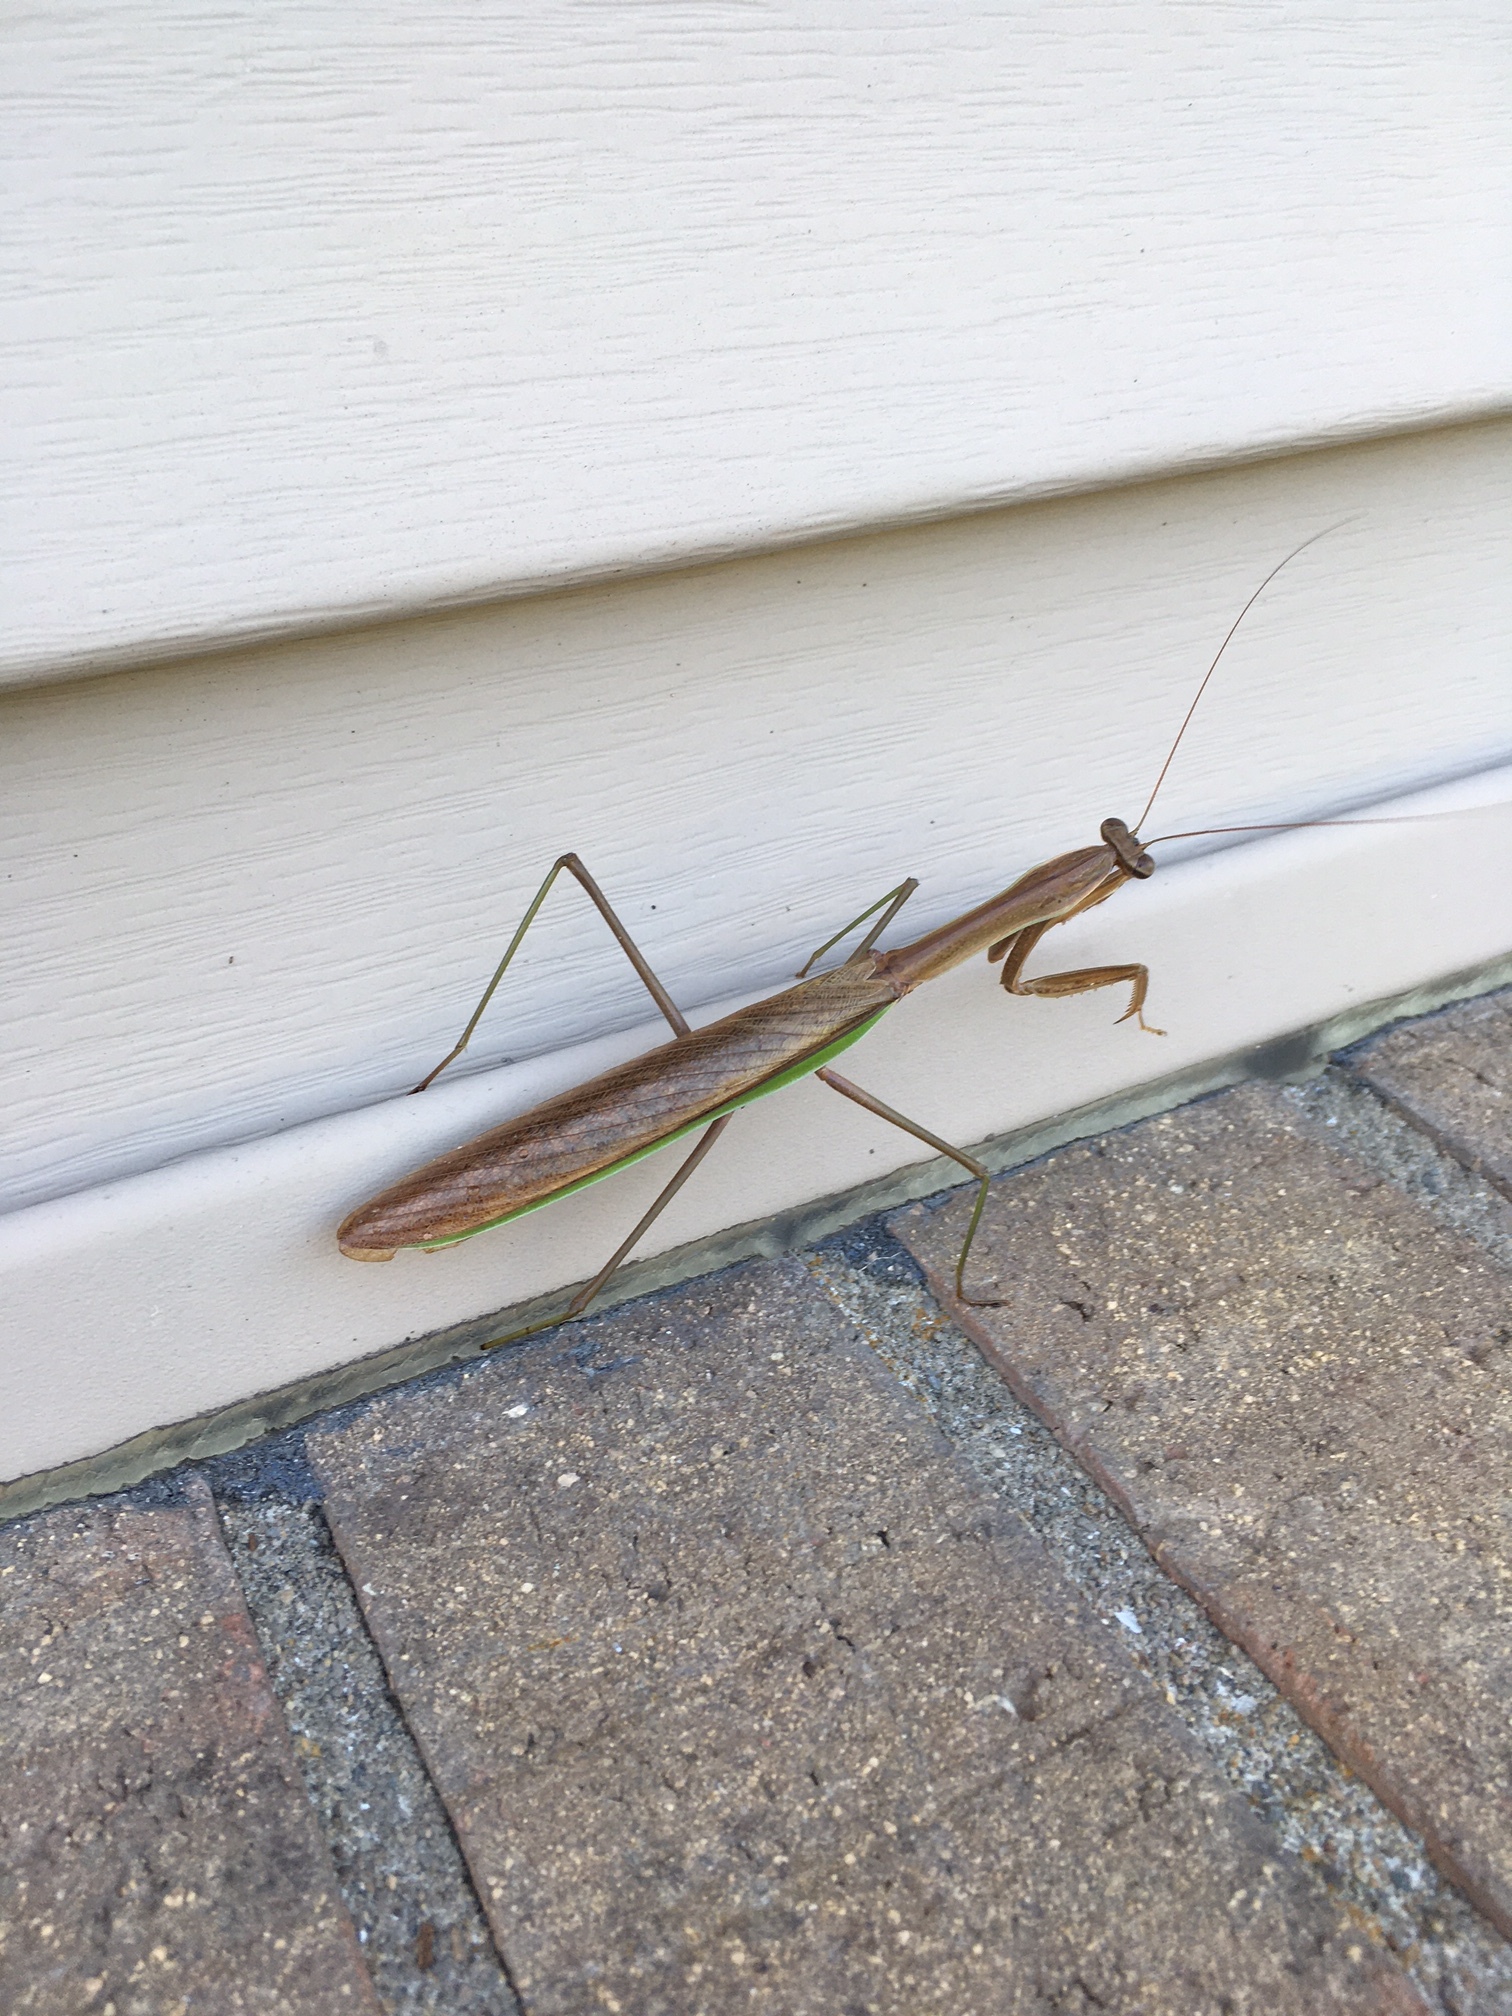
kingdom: Animalia
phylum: Arthropoda
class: Insecta
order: Mantodea
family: Mantidae
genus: Tenodera
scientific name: Tenodera sinensis
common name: Chinese mantis
